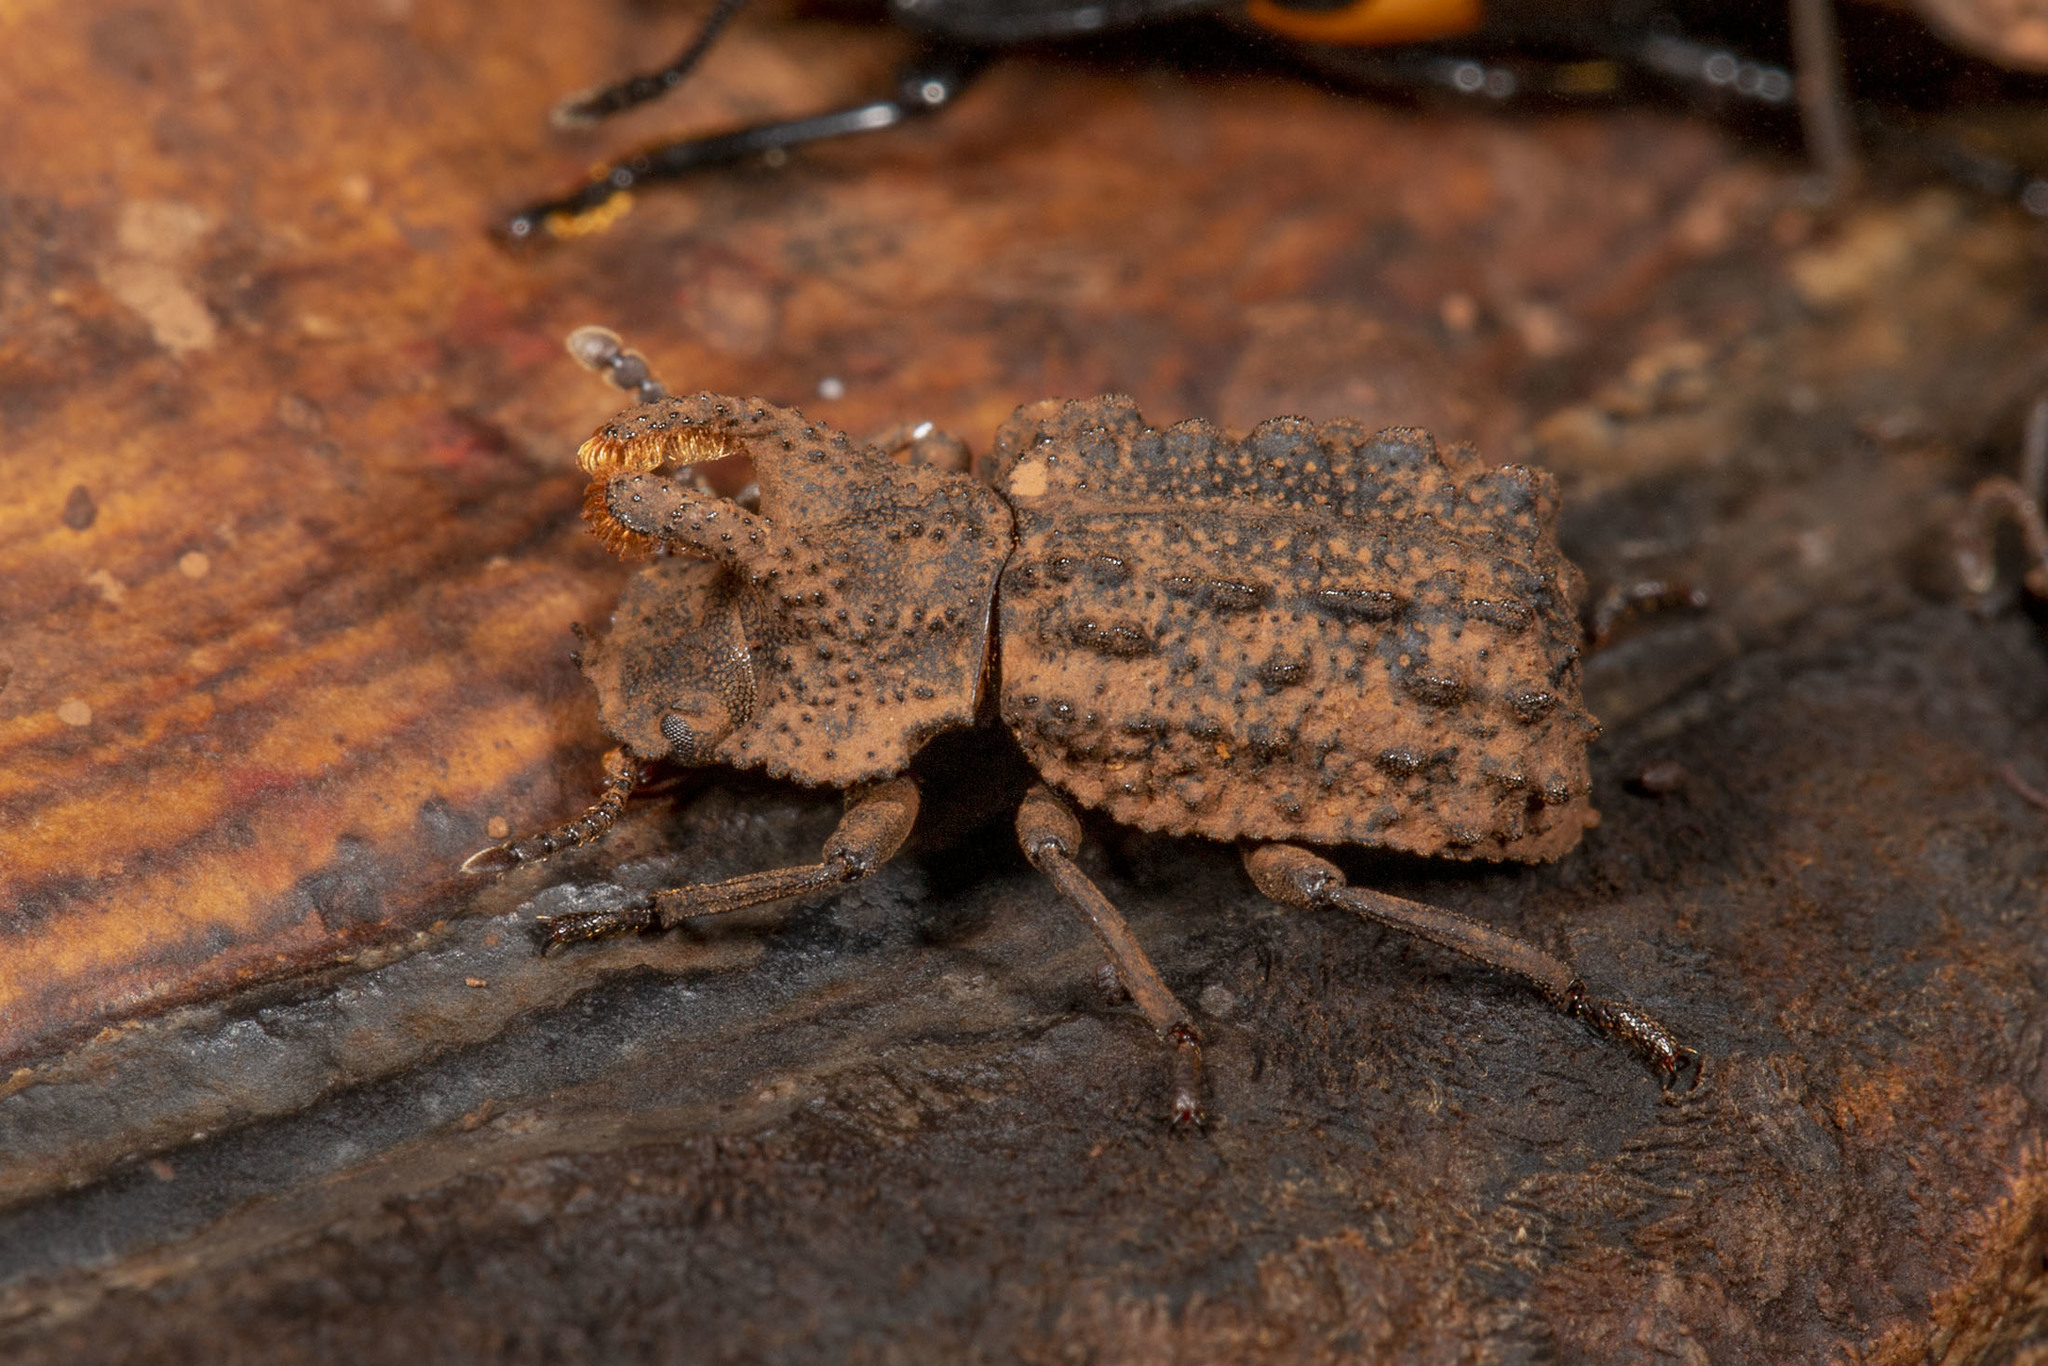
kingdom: Animalia
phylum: Arthropoda
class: Insecta
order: Coleoptera
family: Tenebrionidae
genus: Gnatocerus
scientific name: Gnatocerus cornutus
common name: Broad-horned flour beetle
